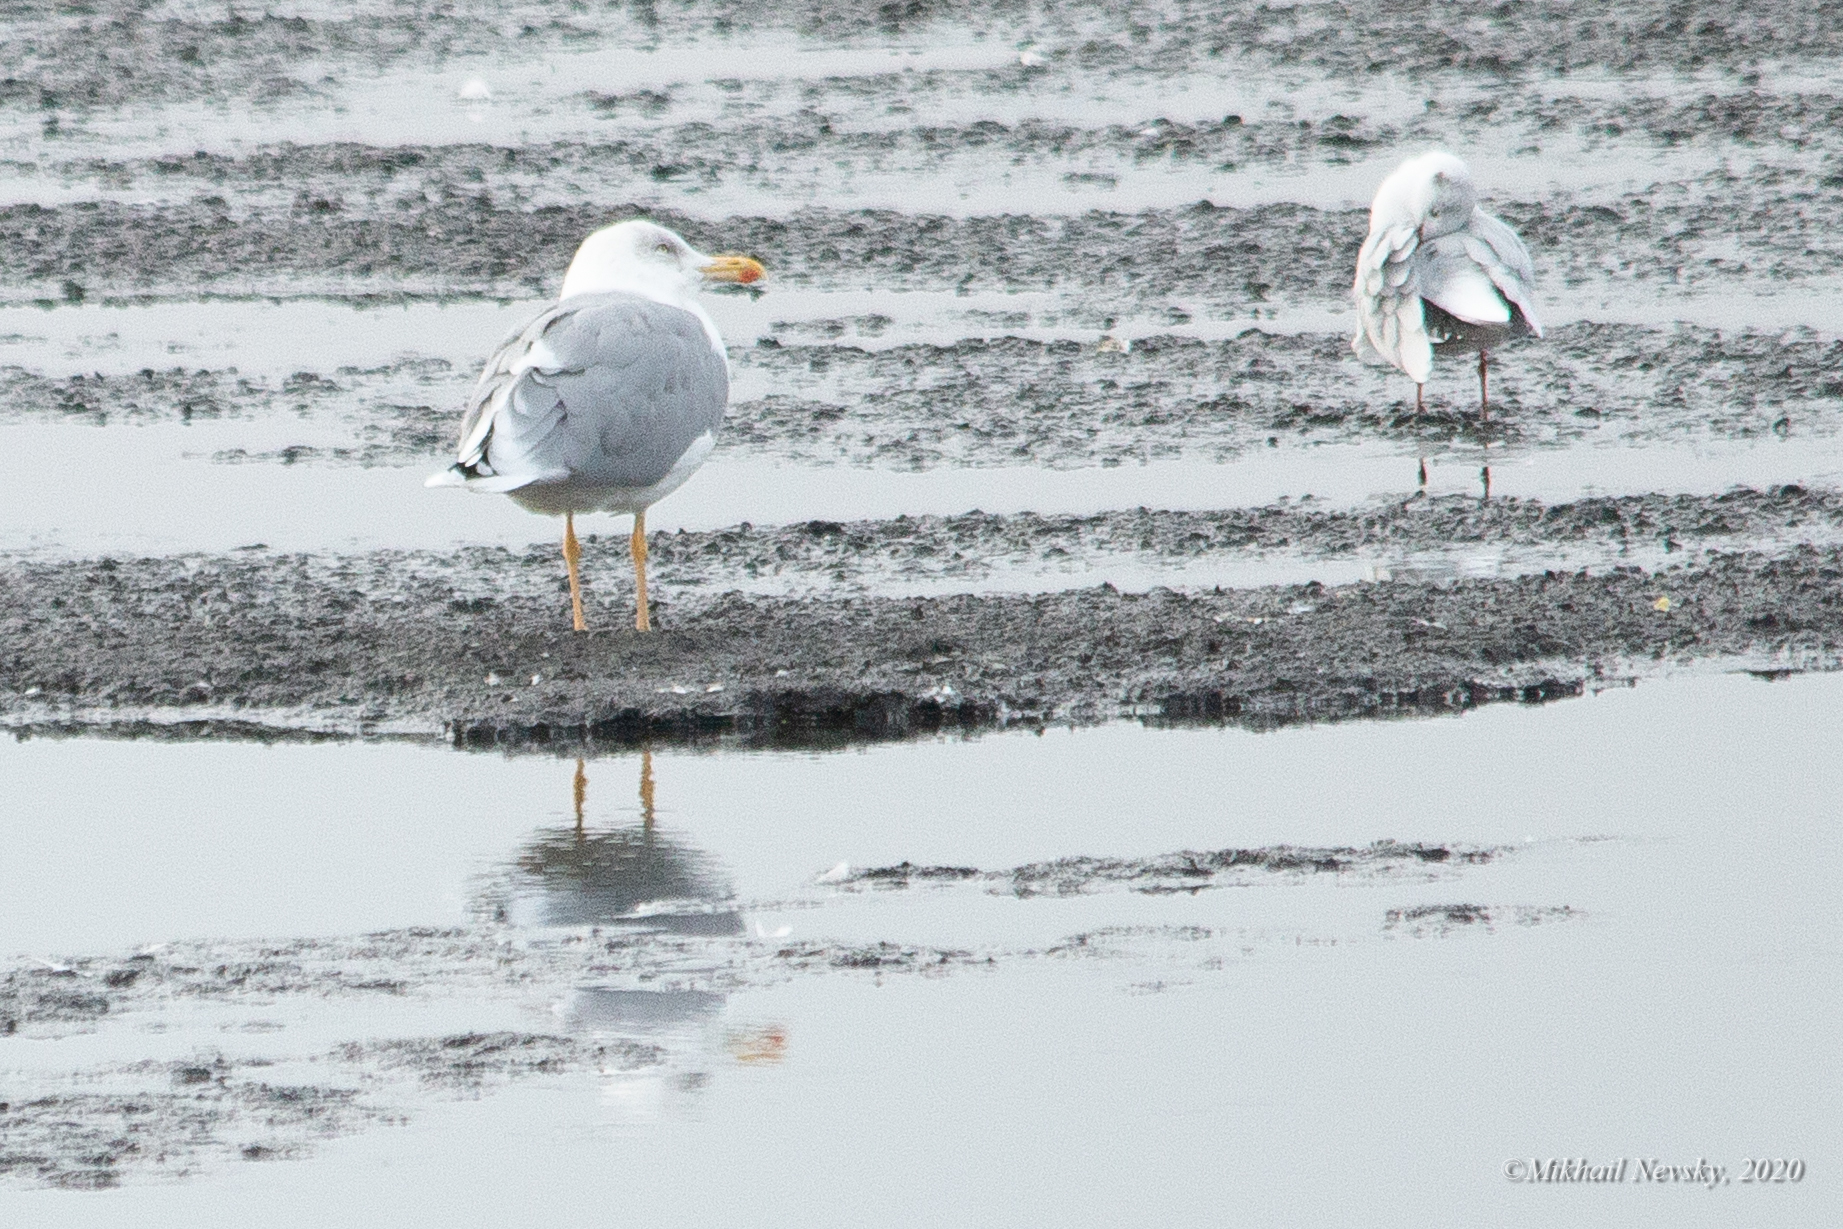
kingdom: Animalia
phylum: Chordata
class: Aves
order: Charadriiformes
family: Laridae
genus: Larus
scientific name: Larus argentatus
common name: Herring gull
